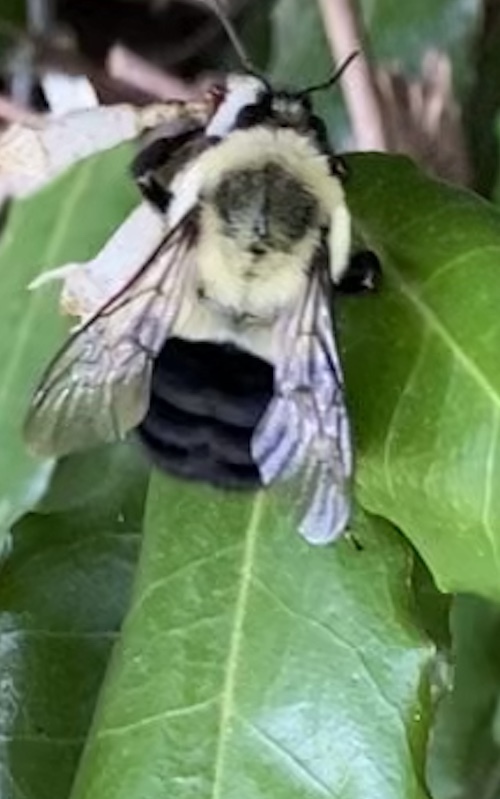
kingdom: Animalia
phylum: Arthropoda
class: Insecta
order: Hymenoptera
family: Apidae
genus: Bombus
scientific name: Bombus impatiens
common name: Common eastern bumble bee
